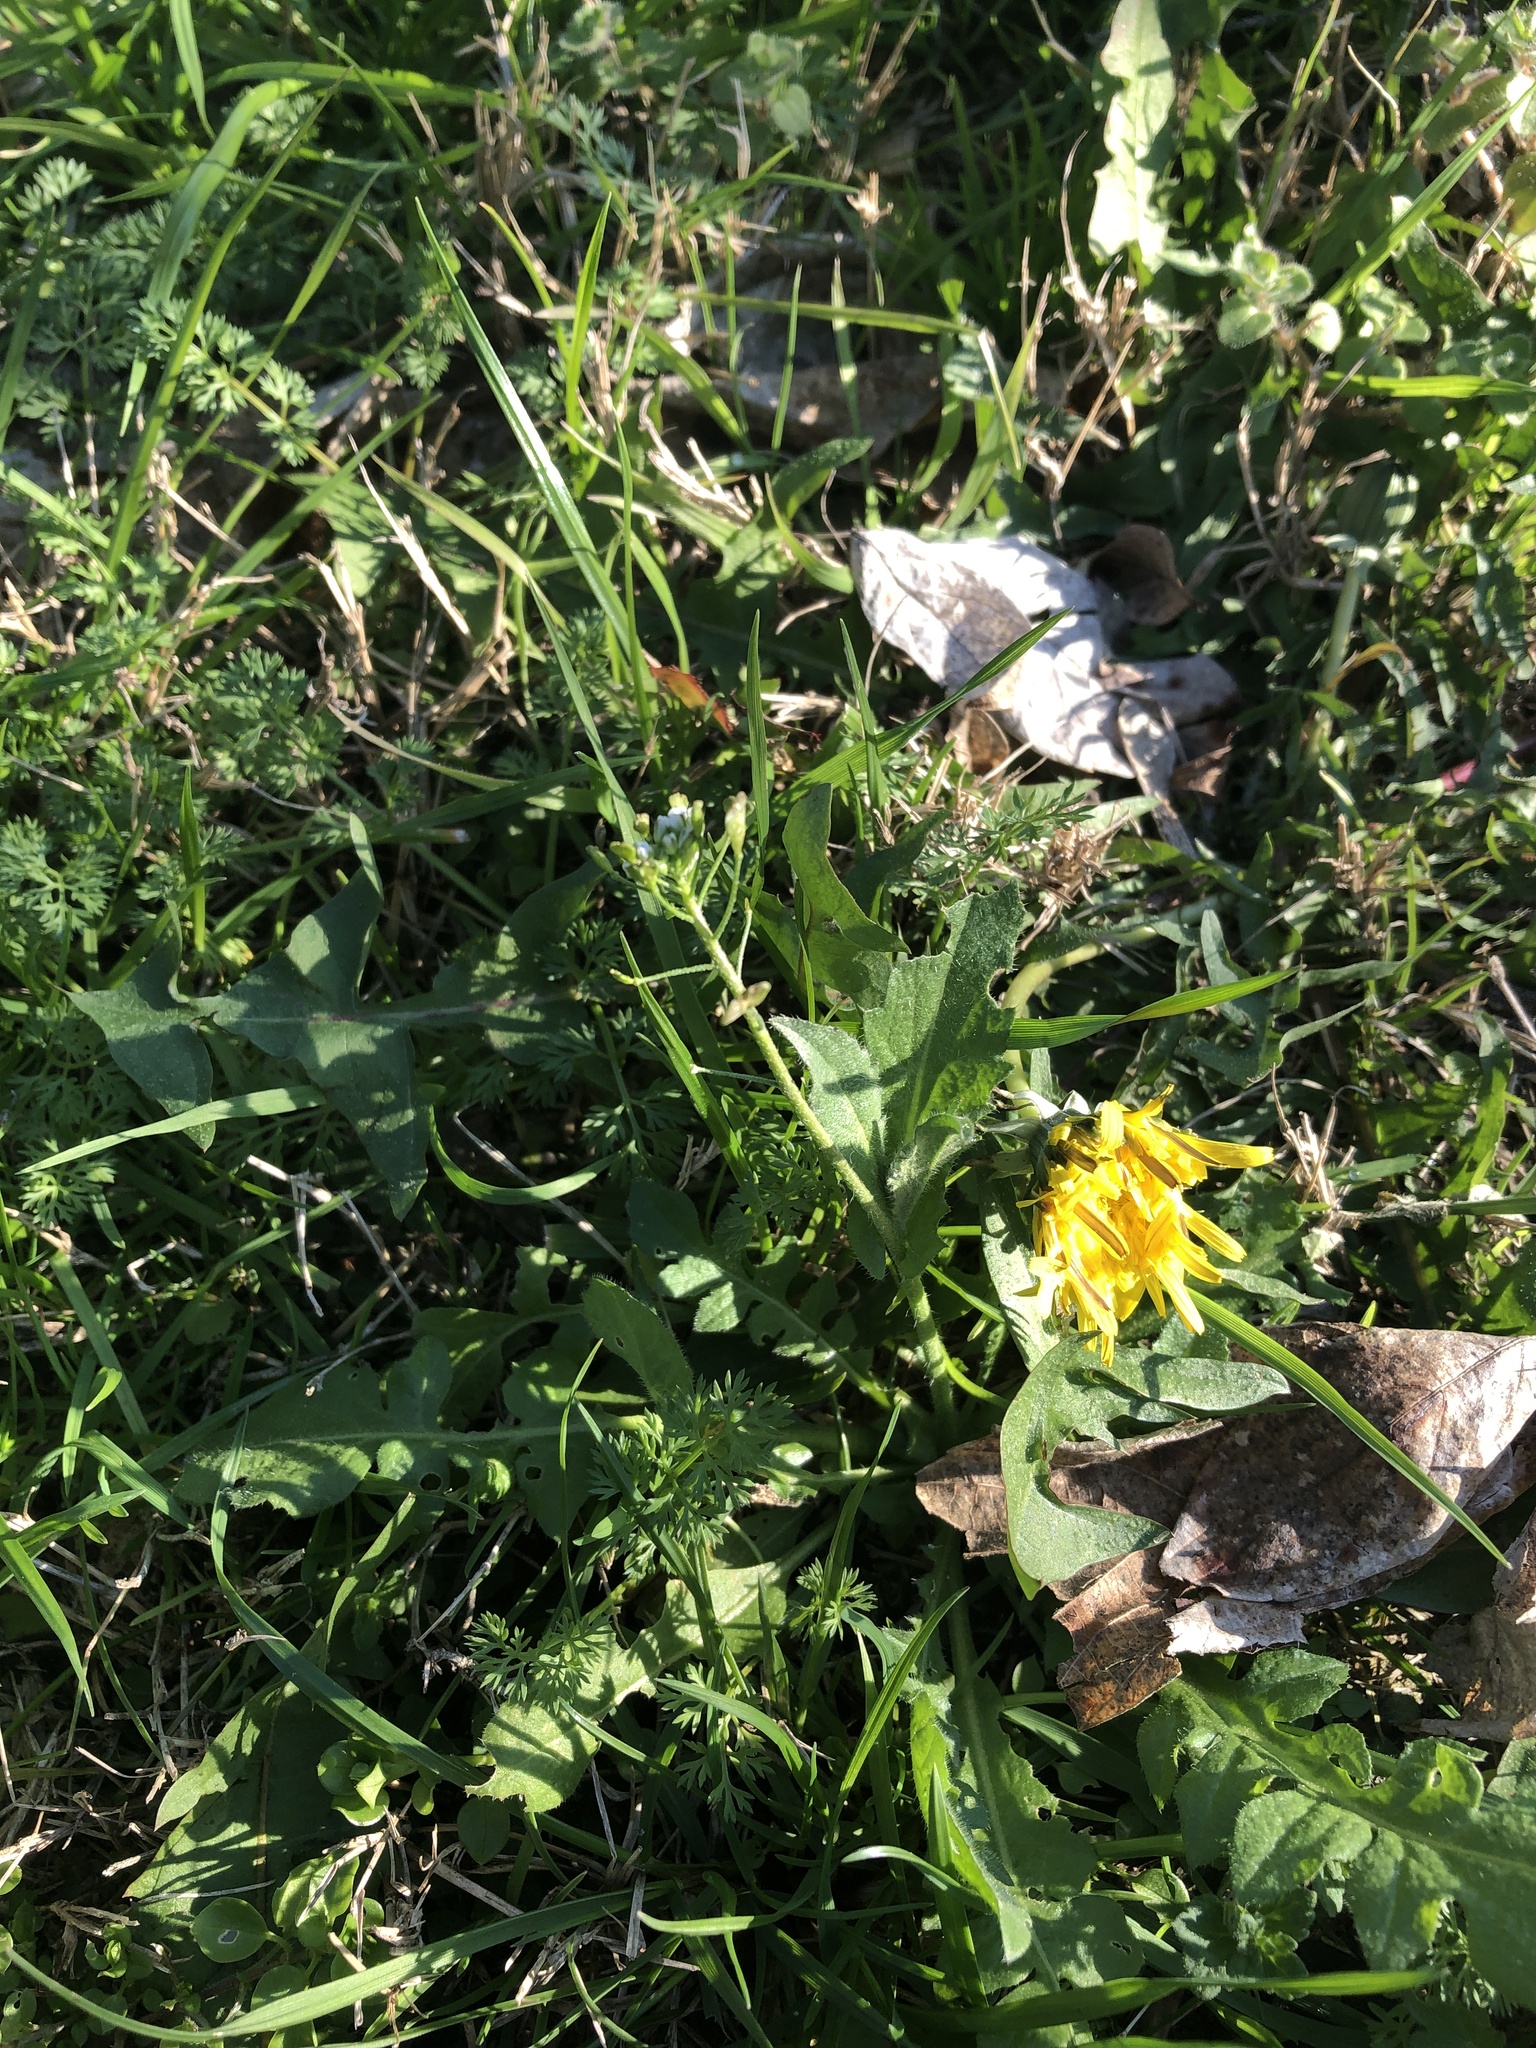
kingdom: Plantae
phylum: Tracheophyta
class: Magnoliopsida
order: Brassicales
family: Brassicaceae
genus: Capsella
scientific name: Capsella bursa-pastoris
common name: Shepherd's purse
